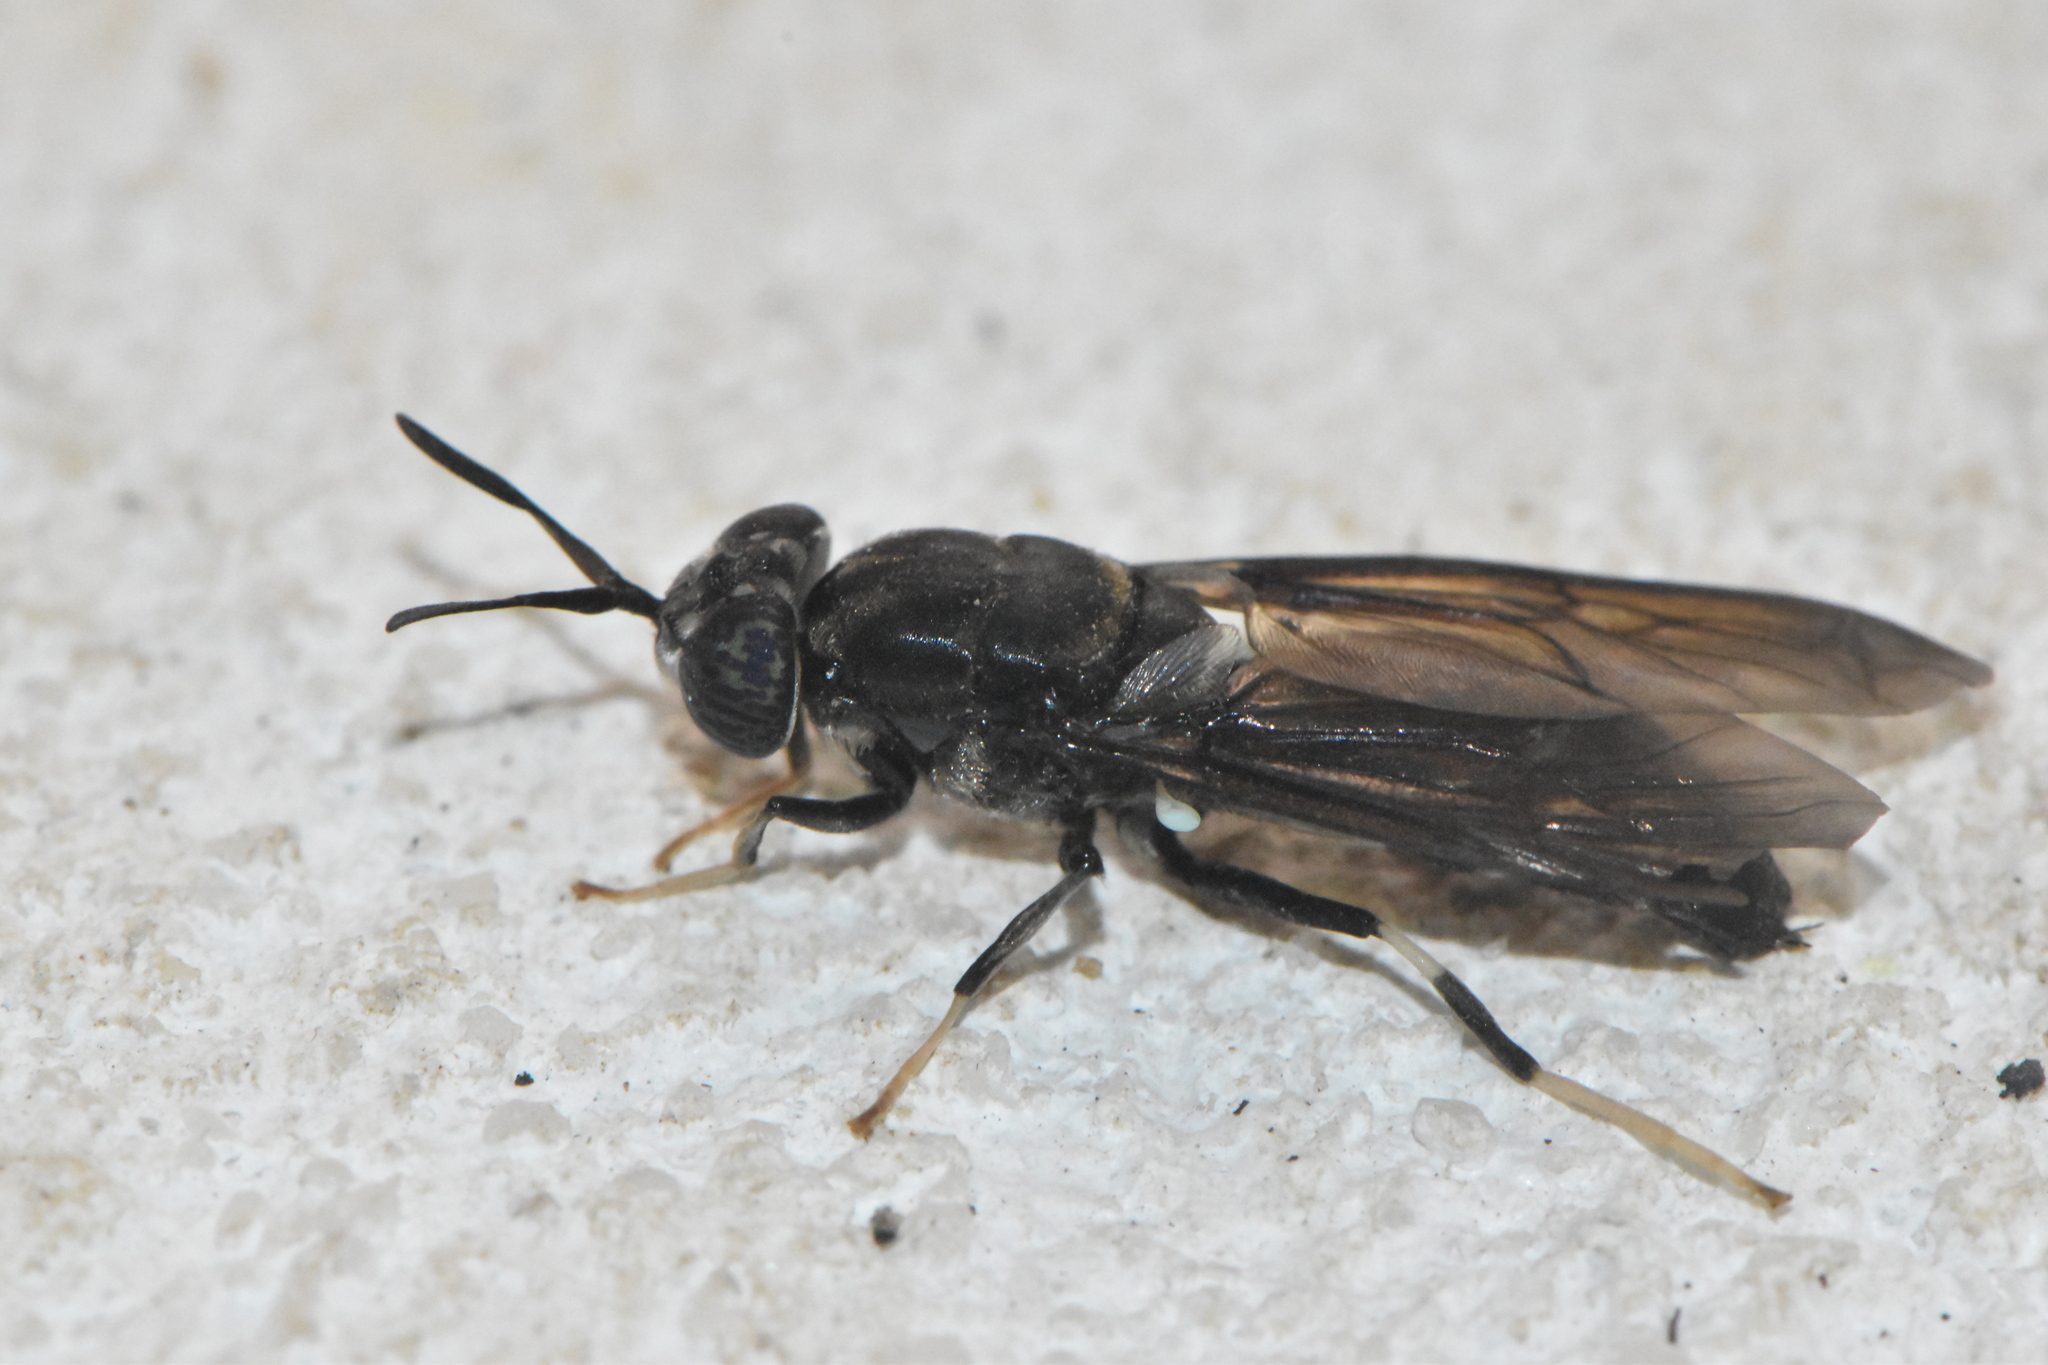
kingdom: Animalia
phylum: Arthropoda
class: Insecta
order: Diptera
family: Stratiomyidae
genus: Hermetia
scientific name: Hermetia illucens
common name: Black soldier fly
